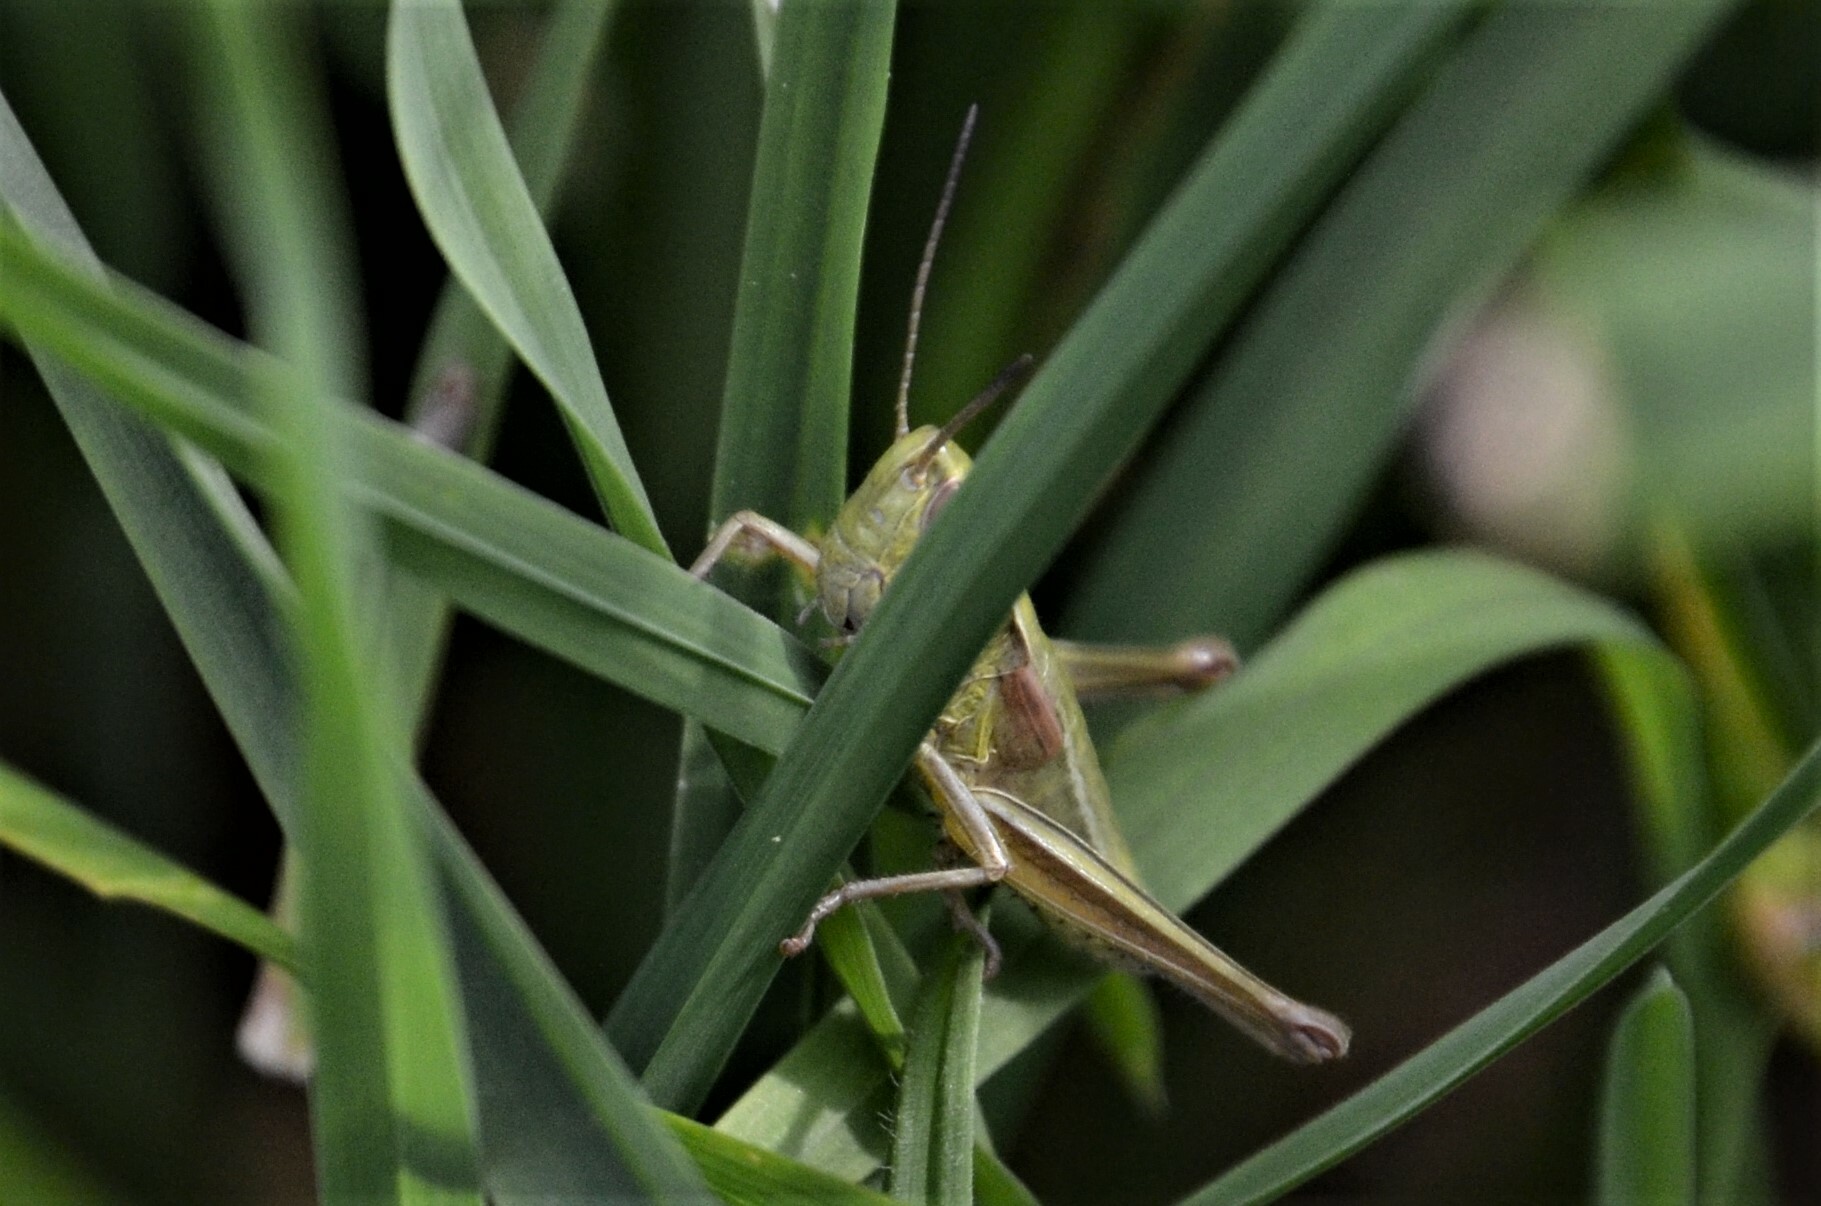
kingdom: Animalia
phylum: Arthropoda
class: Insecta
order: Orthoptera
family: Acrididae
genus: Euthystira
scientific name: Euthystira brachyptera
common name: Small gold grasshopper
